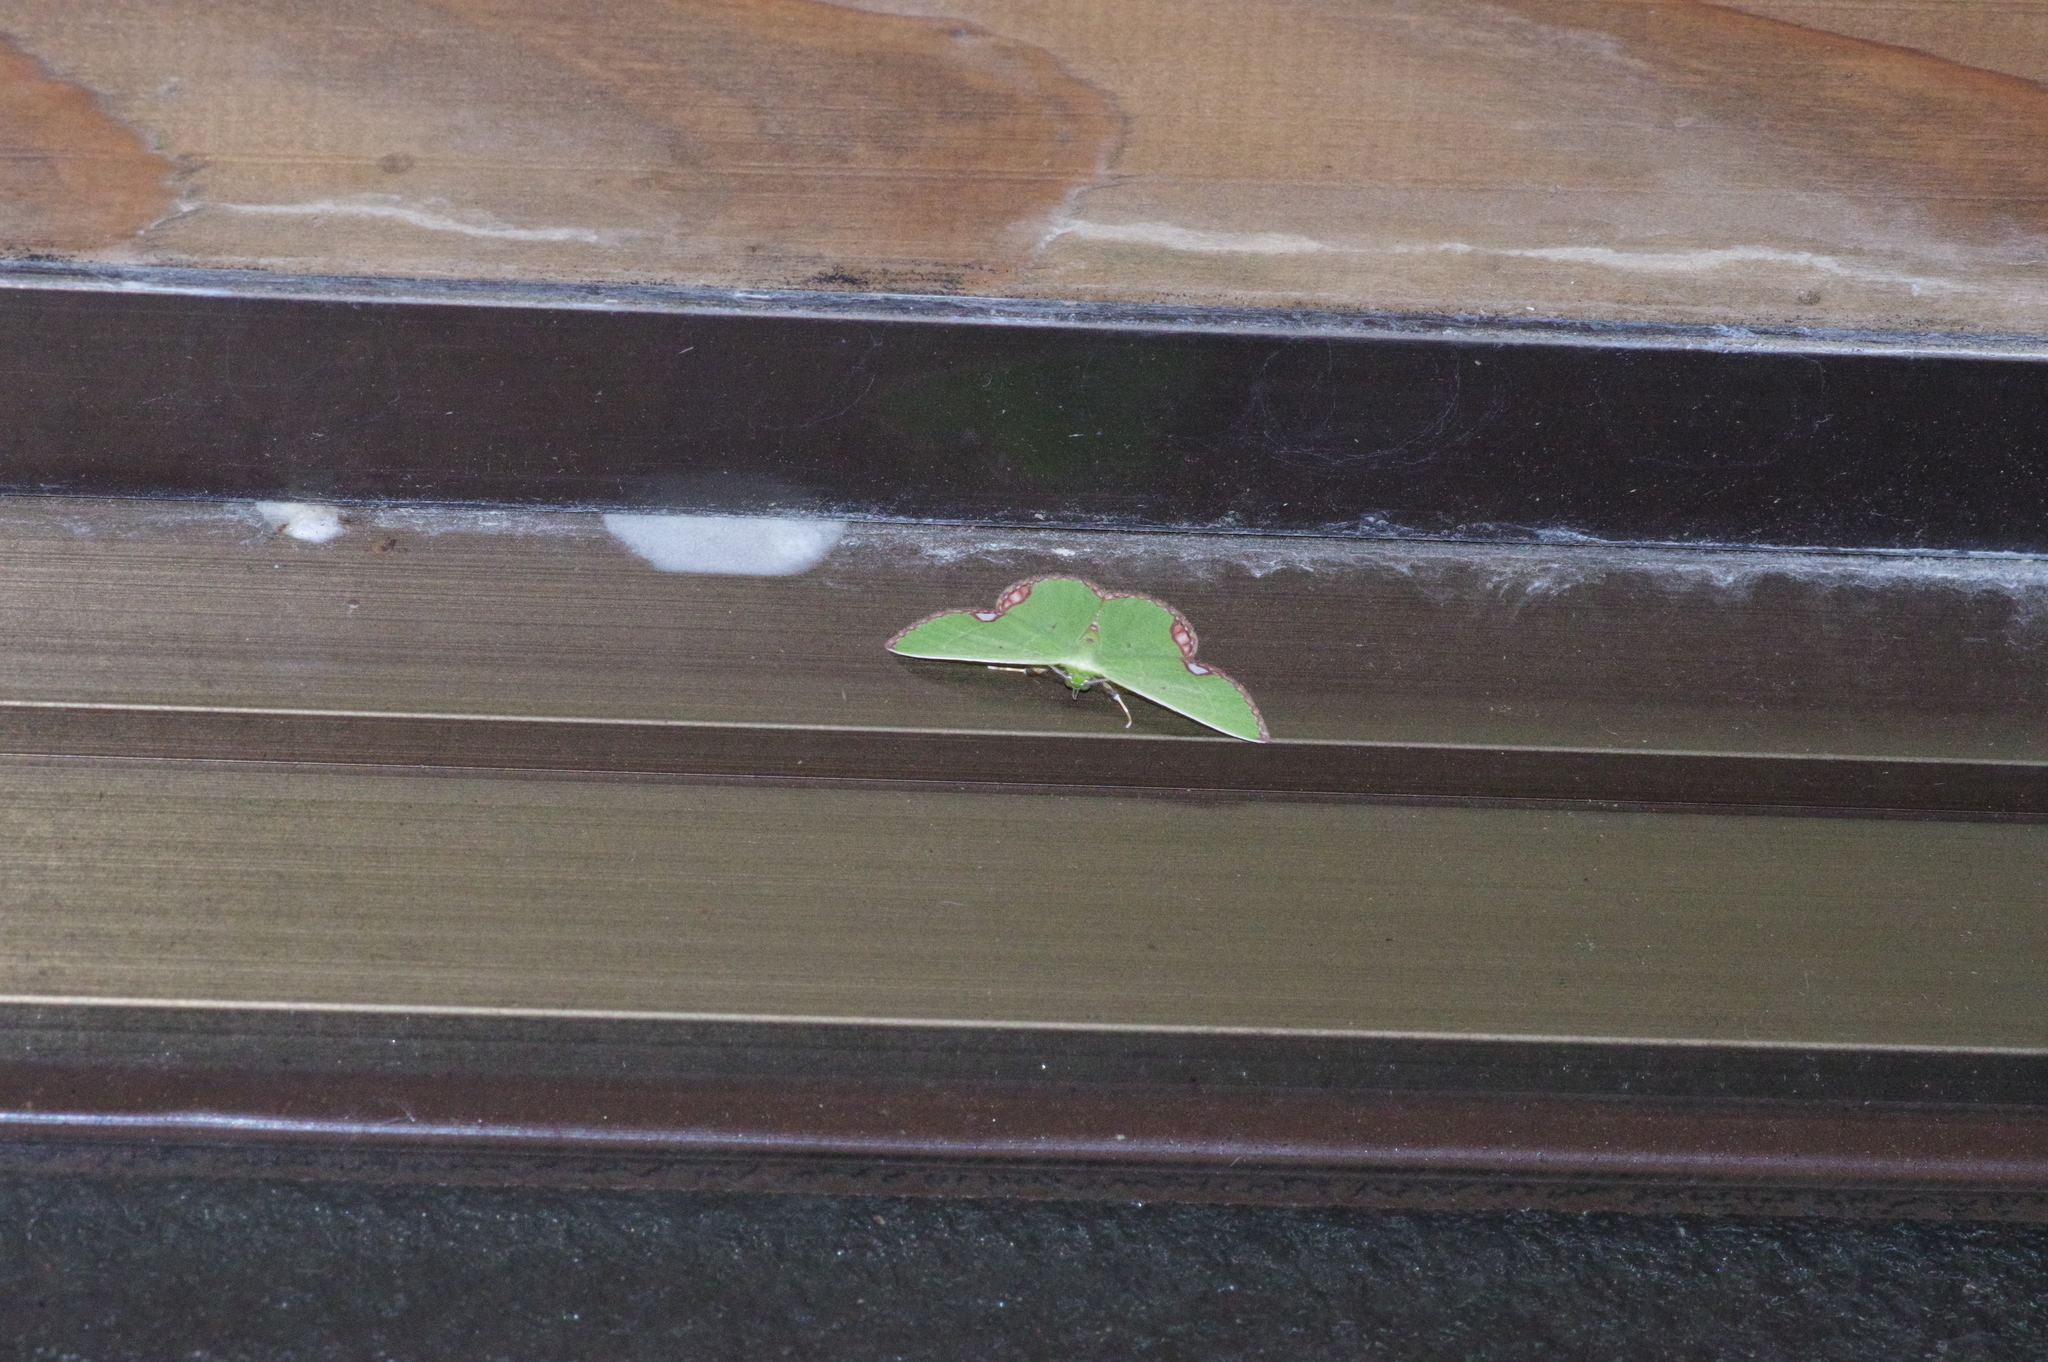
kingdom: Animalia
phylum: Arthropoda
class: Insecta
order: Lepidoptera
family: Geometridae
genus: Comibaena
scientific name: Comibaena procumbaria
